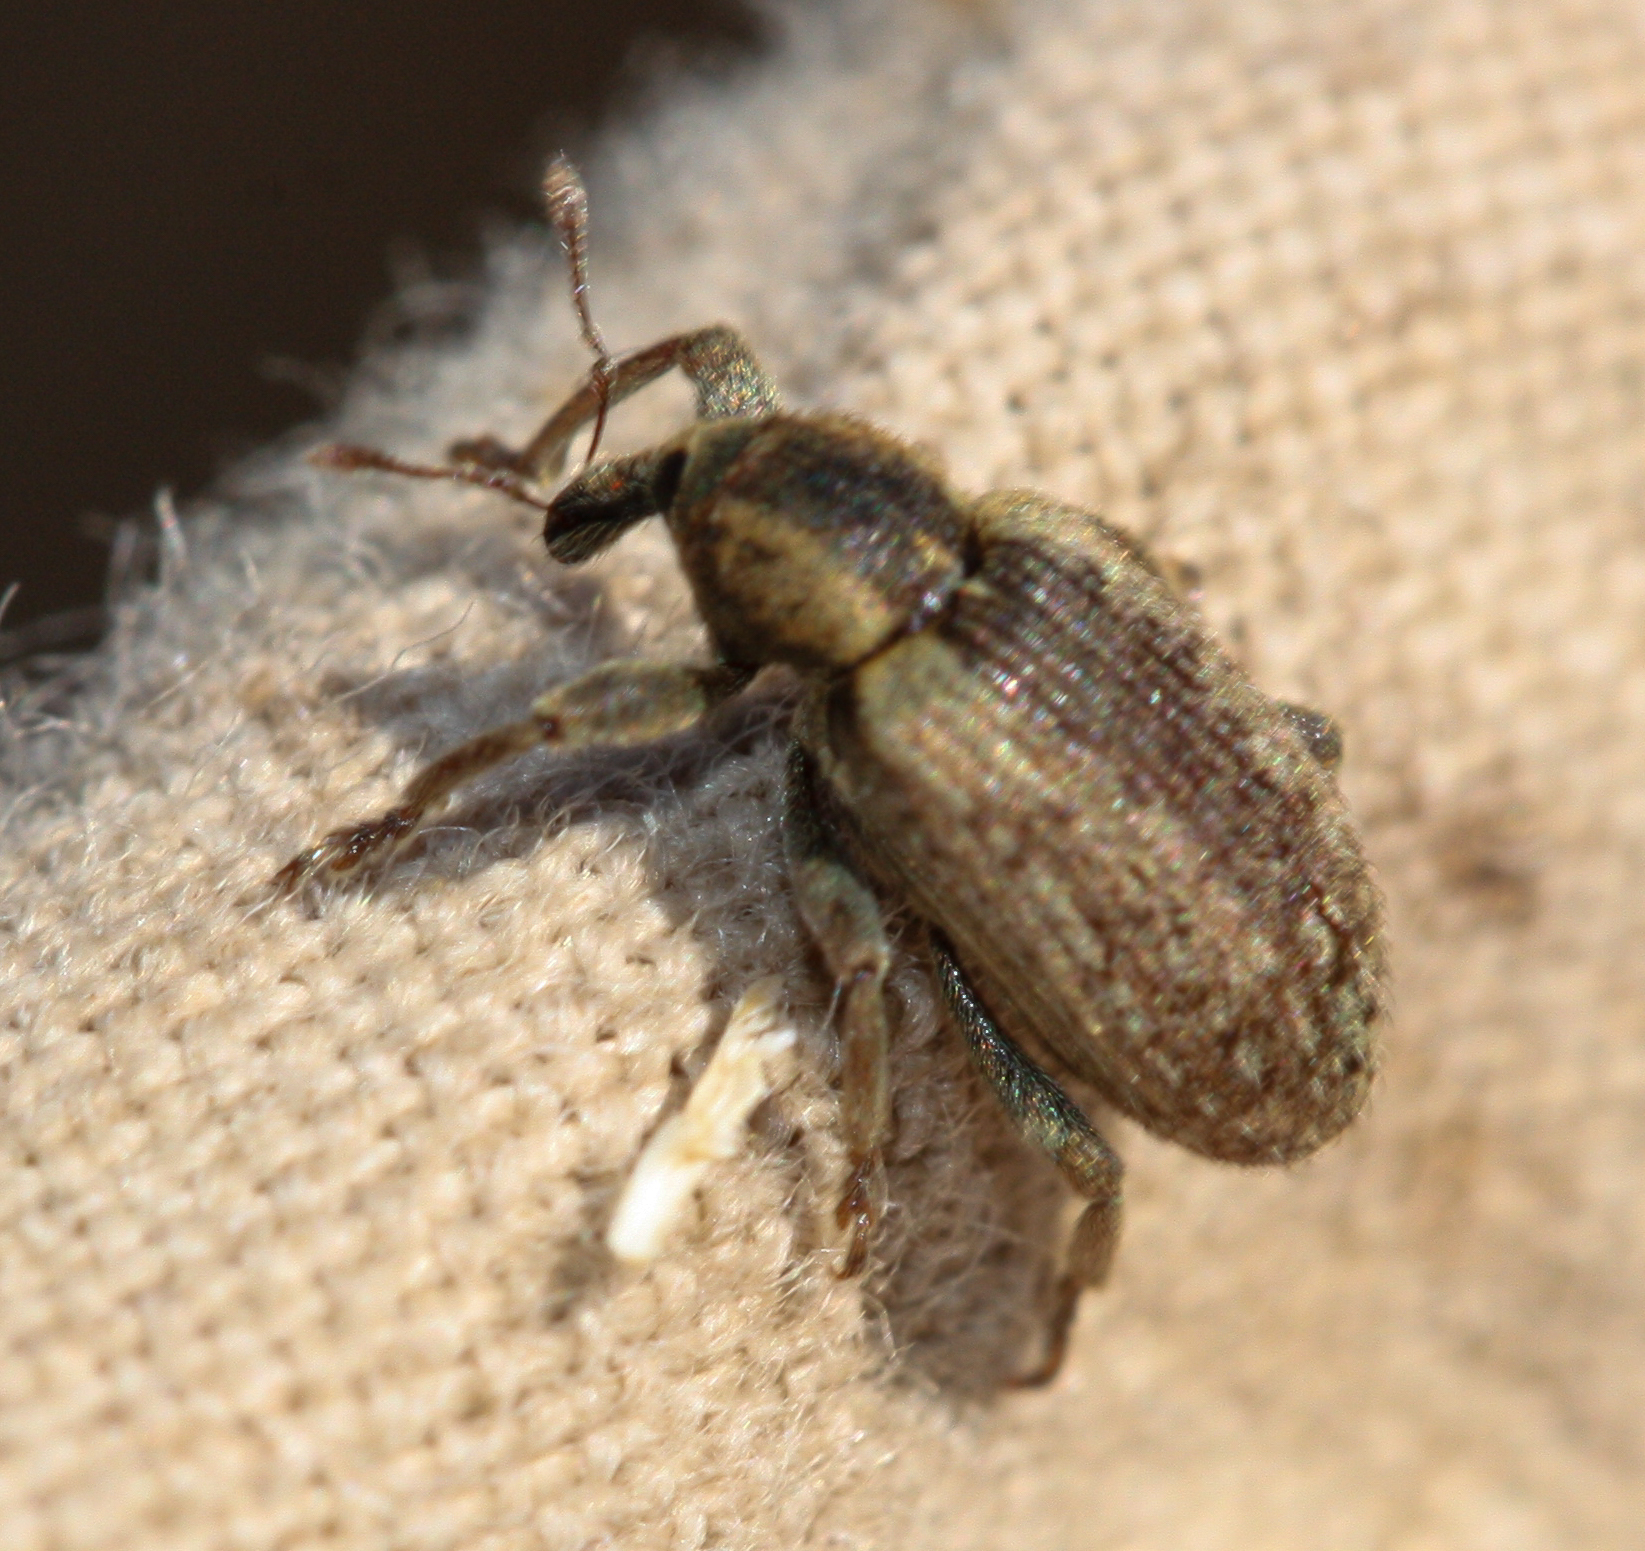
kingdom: Animalia
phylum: Arthropoda
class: Insecta
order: Coleoptera
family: Curculionidae
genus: Hypera
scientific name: Hypera postica
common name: Weevil
